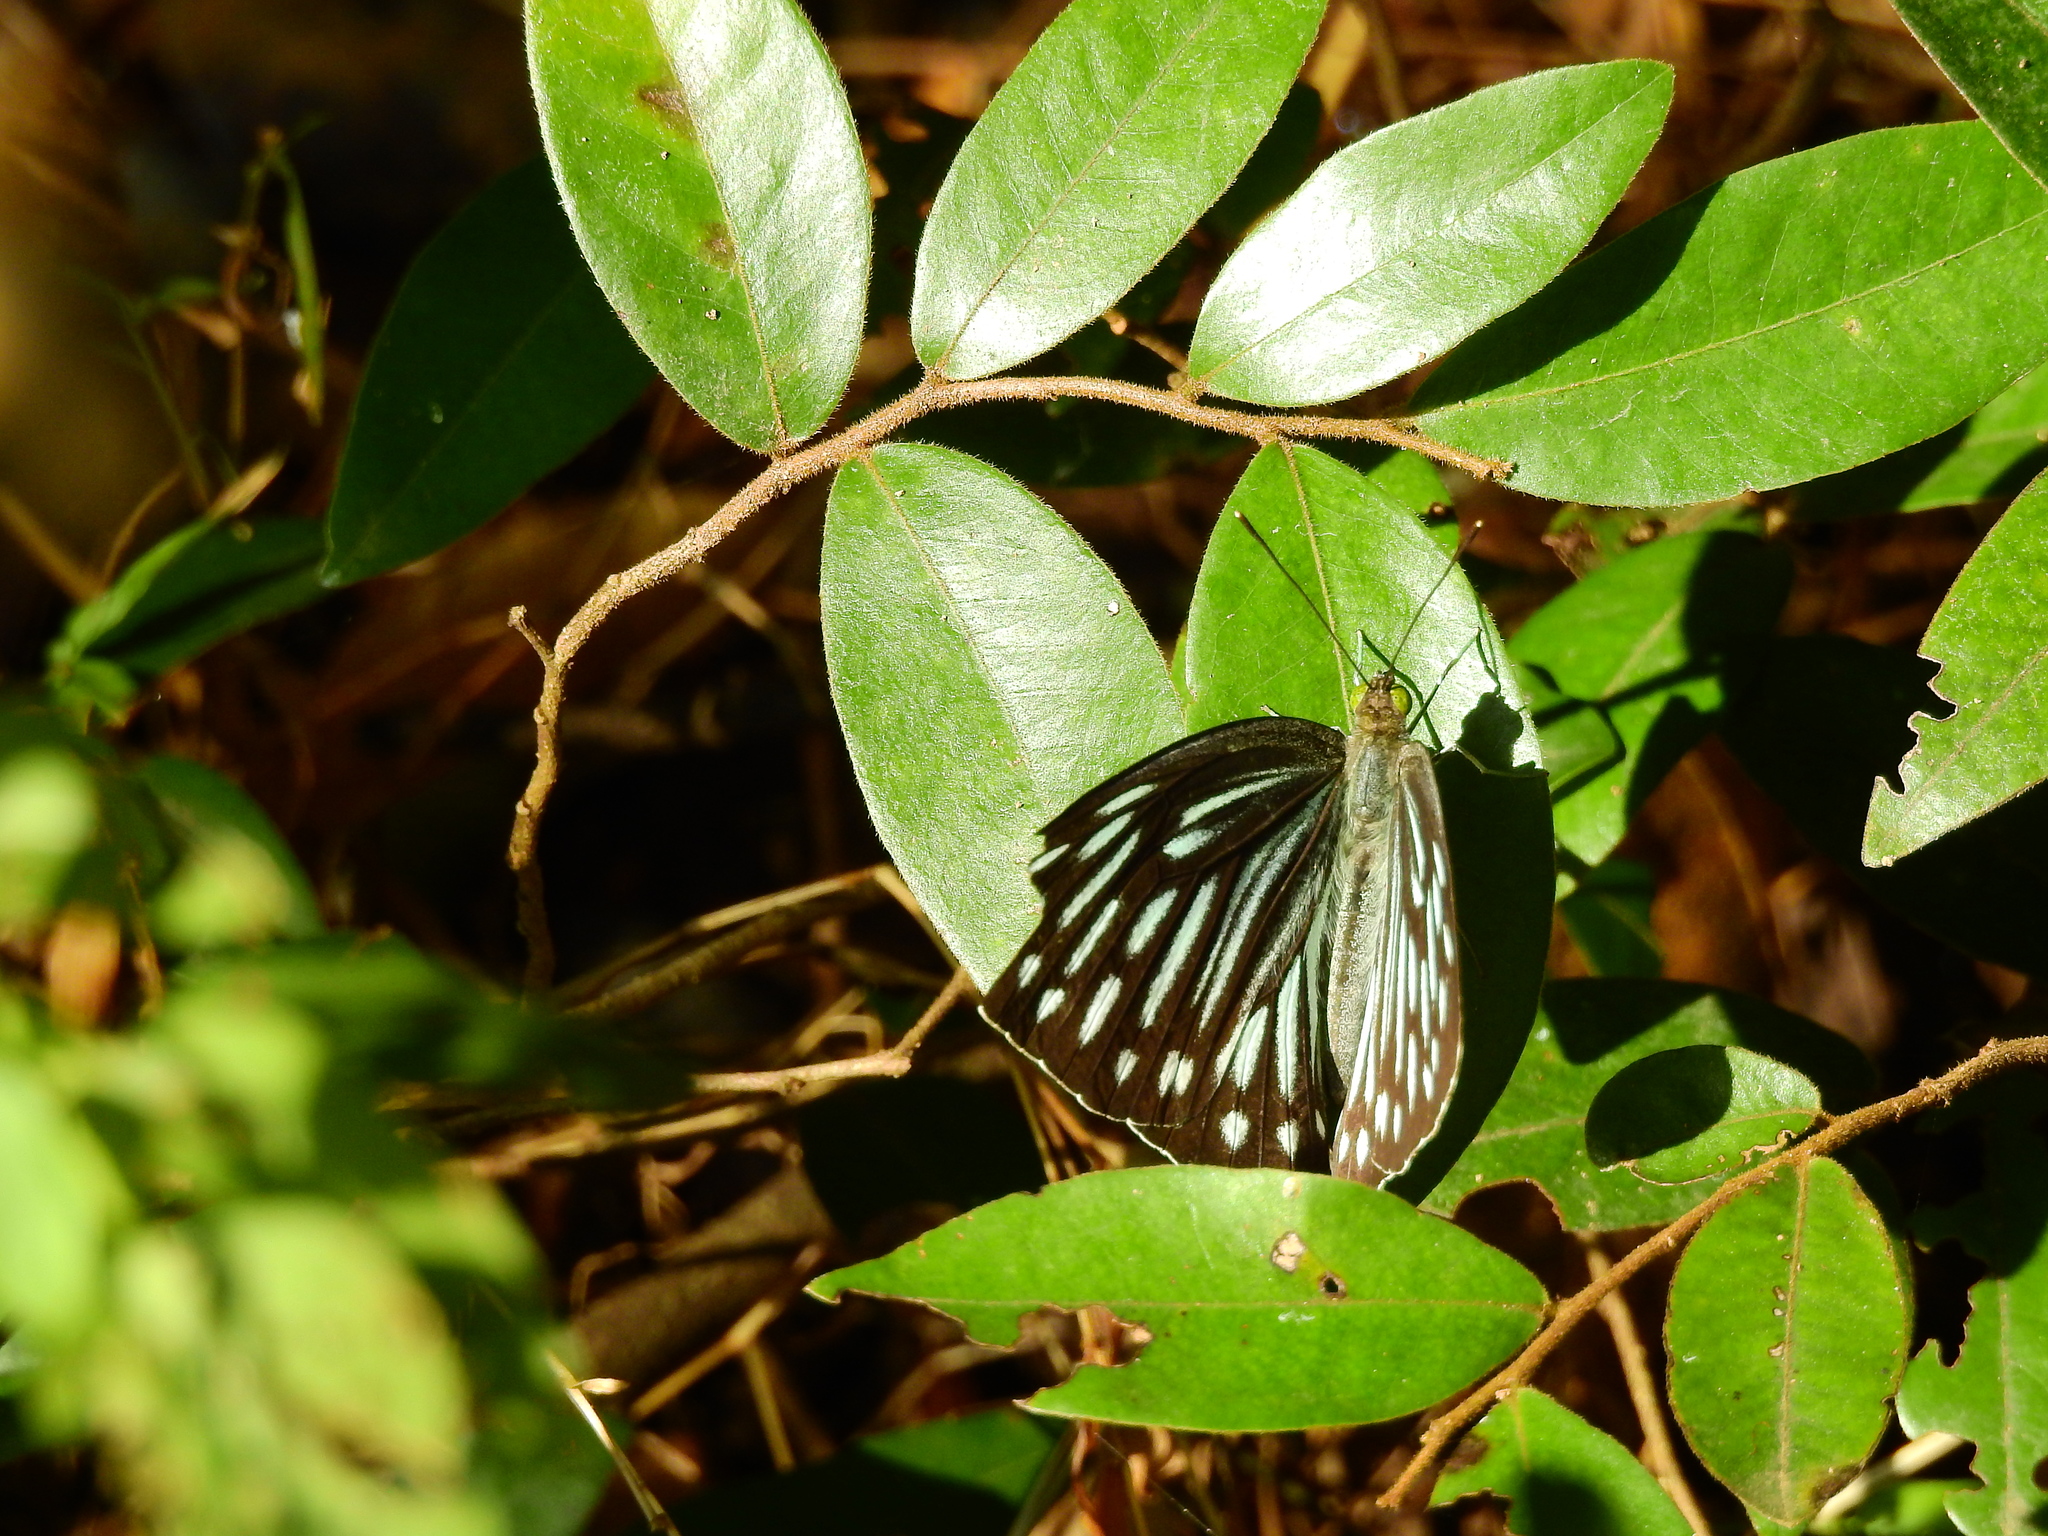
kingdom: Animalia
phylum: Arthropoda
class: Insecta
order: Lepidoptera
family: Pieridae
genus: Pareronia
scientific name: Pareronia hippia
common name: Indian wanderer
